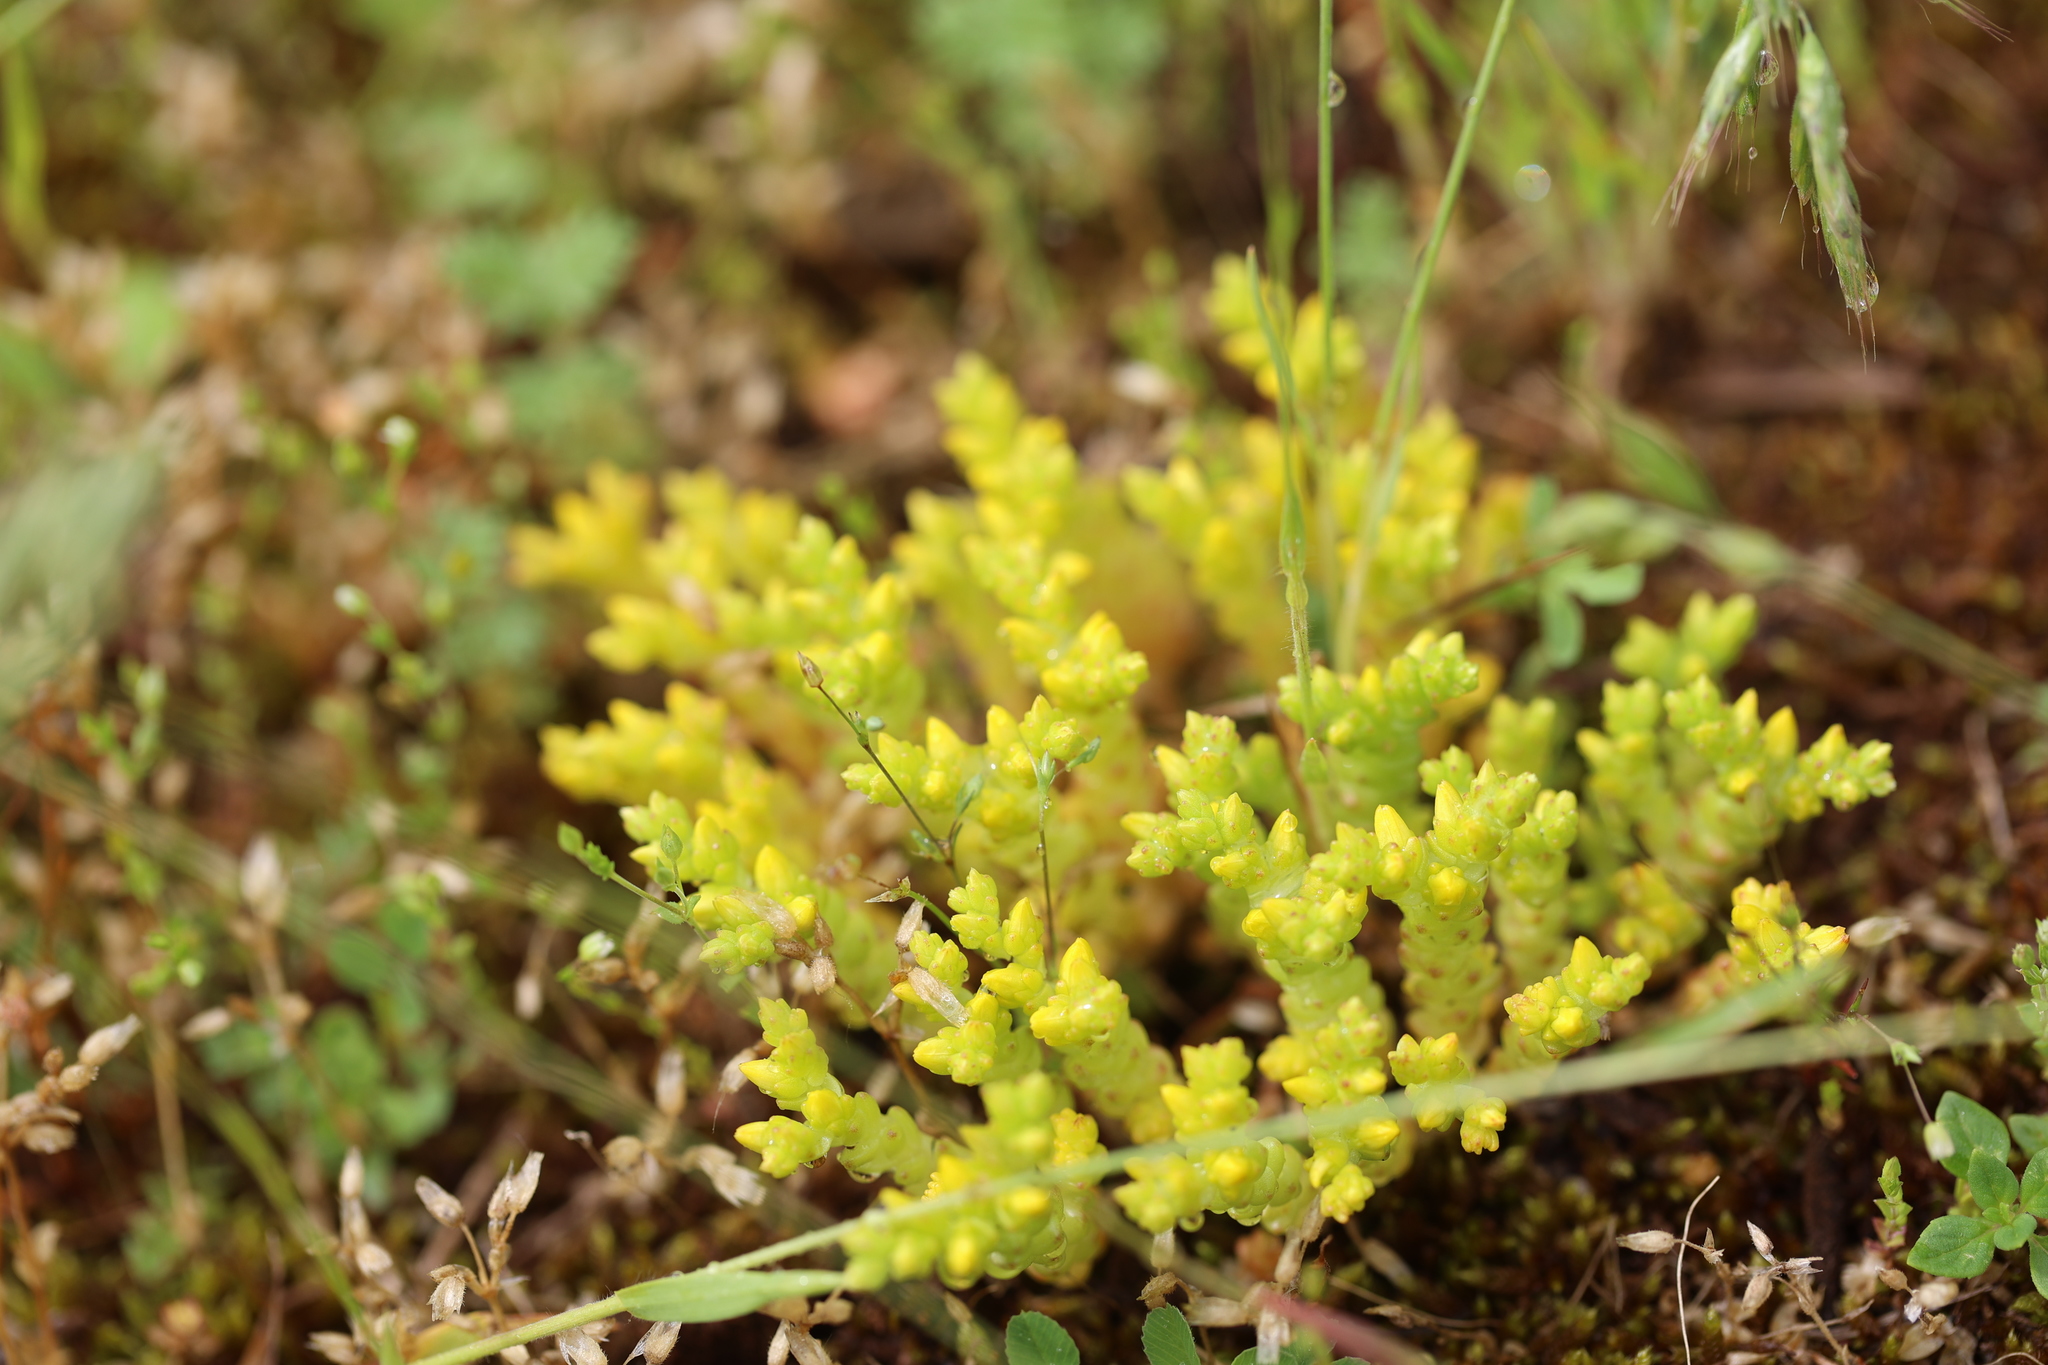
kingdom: Plantae
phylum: Tracheophyta
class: Magnoliopsida
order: Saxifragales
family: Crassulaceae
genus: Sedum
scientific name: Sedum acre
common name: Biting stonecrop
